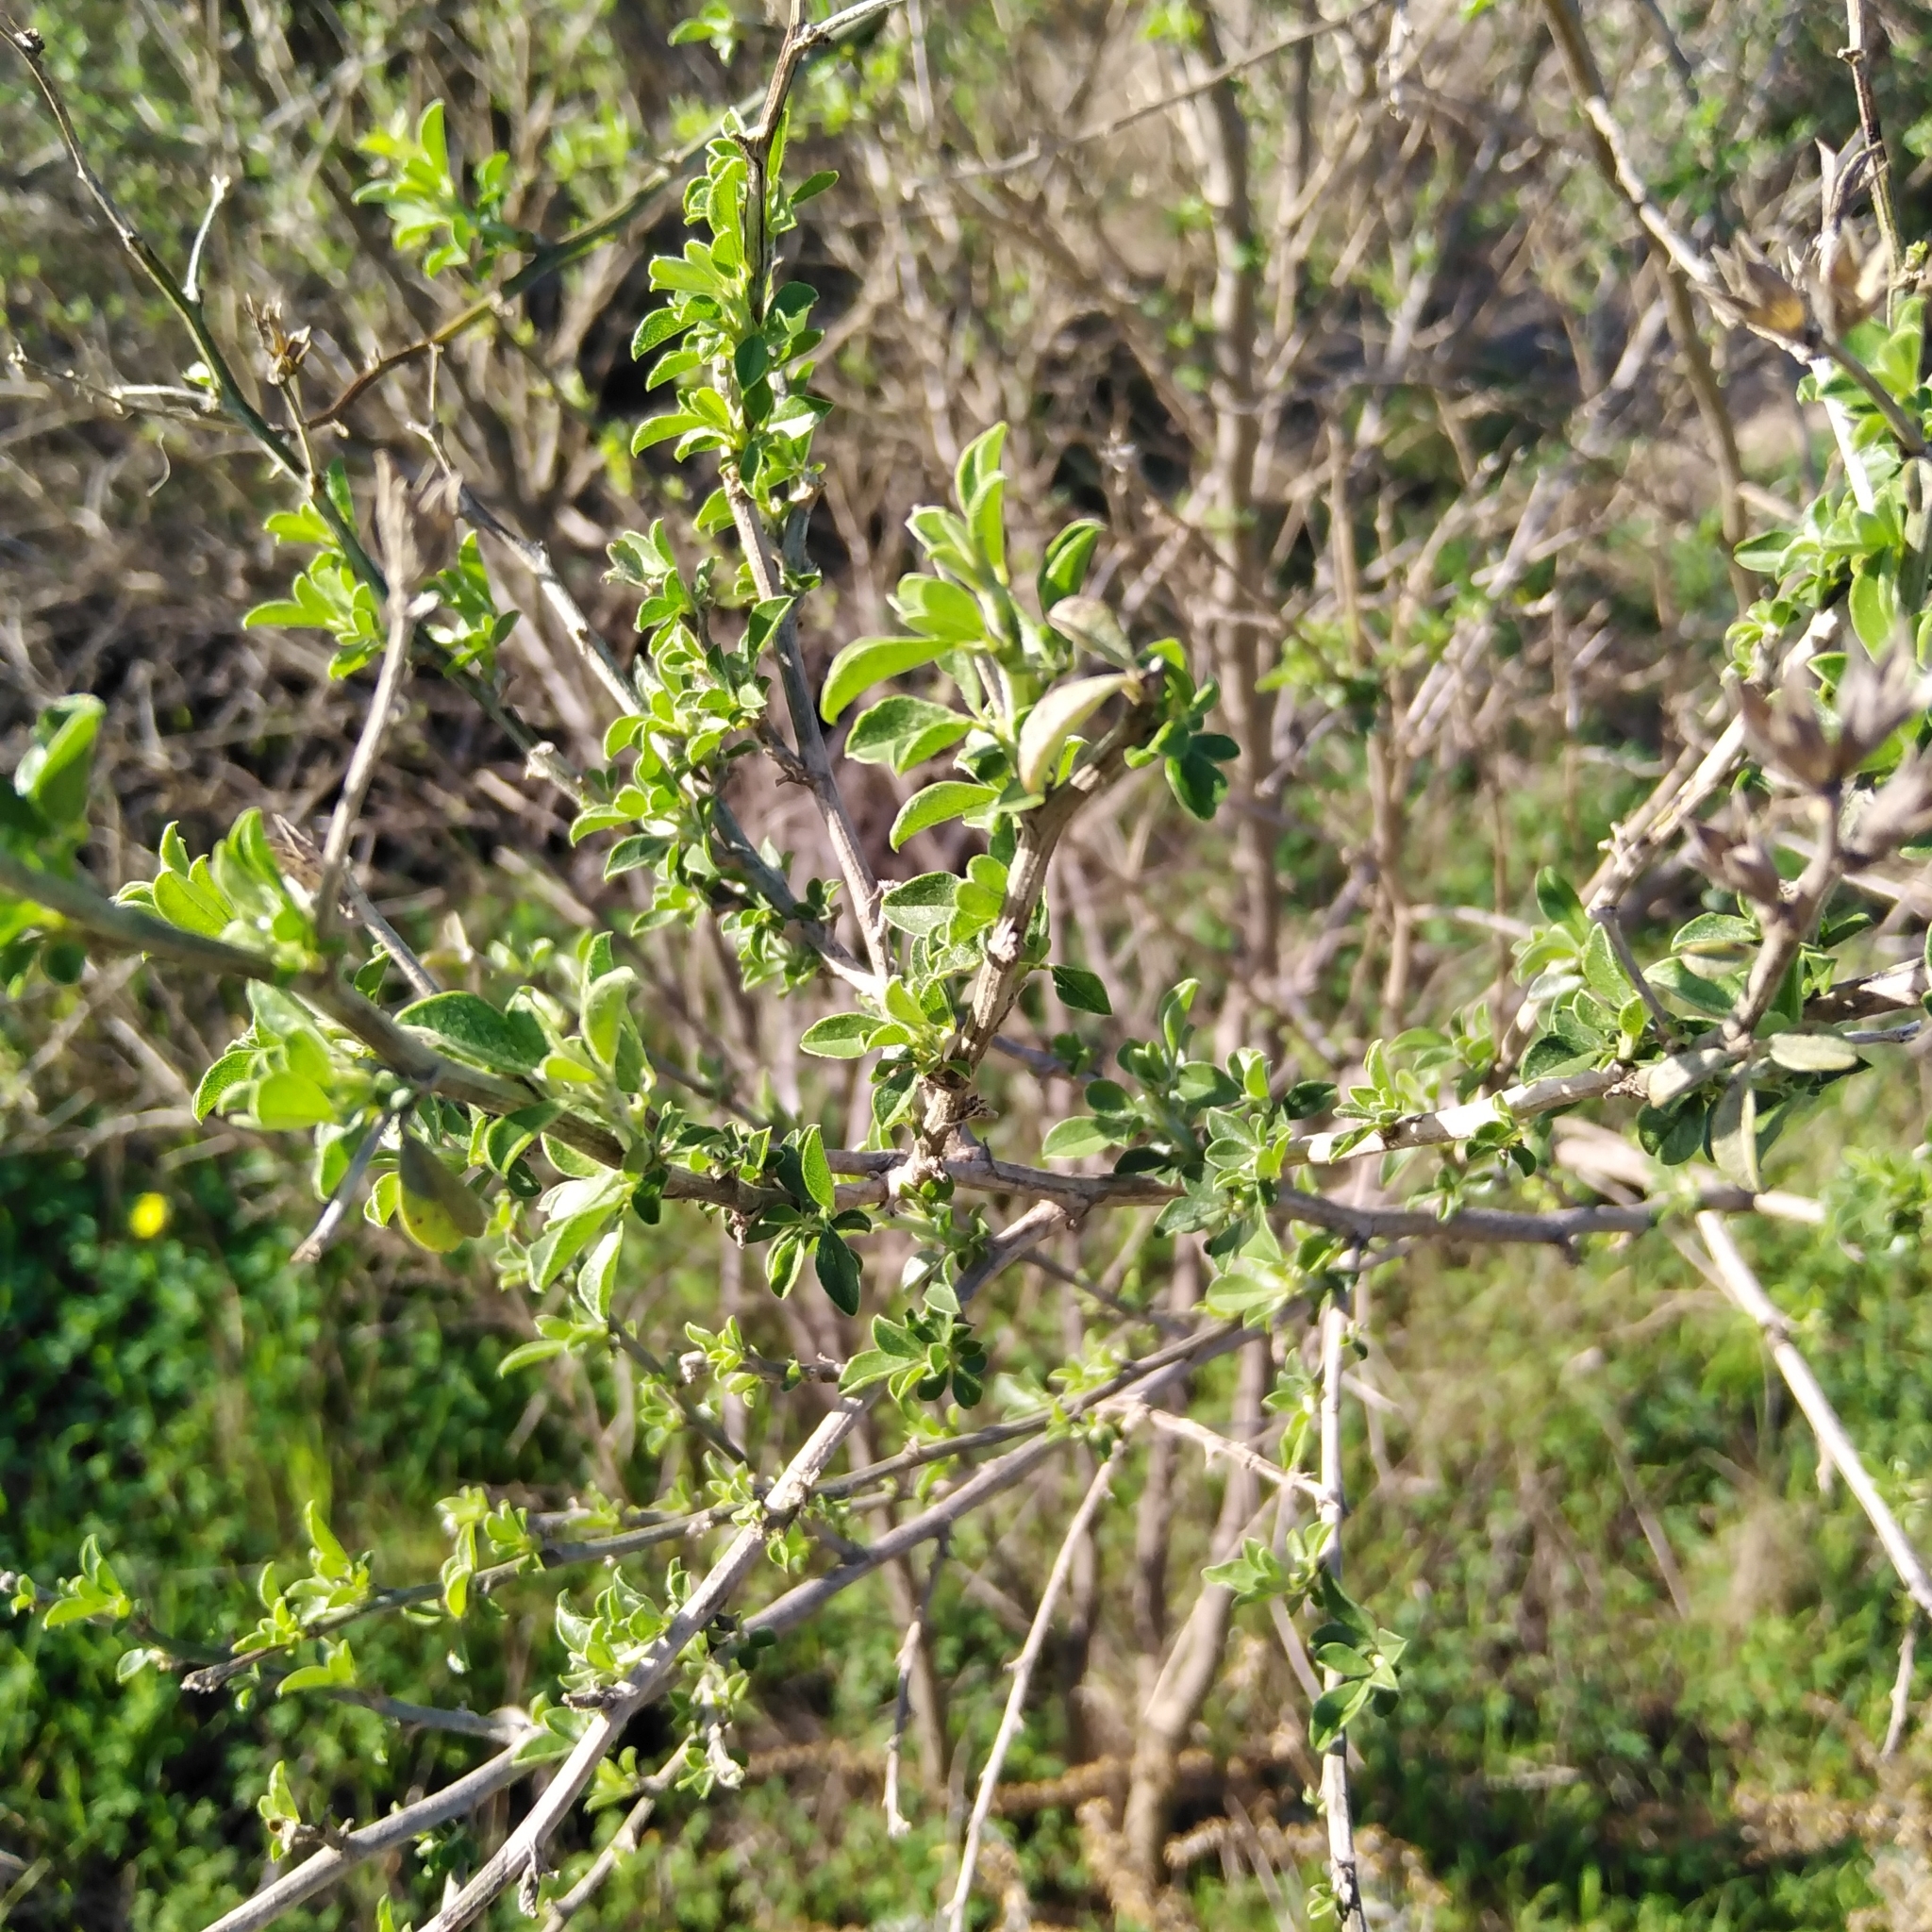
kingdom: Plantae
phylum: Tracheophyta
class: Magnoliopsida
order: Fabales
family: Fabaceae
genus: Psoralea
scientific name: Psoralea hirta
